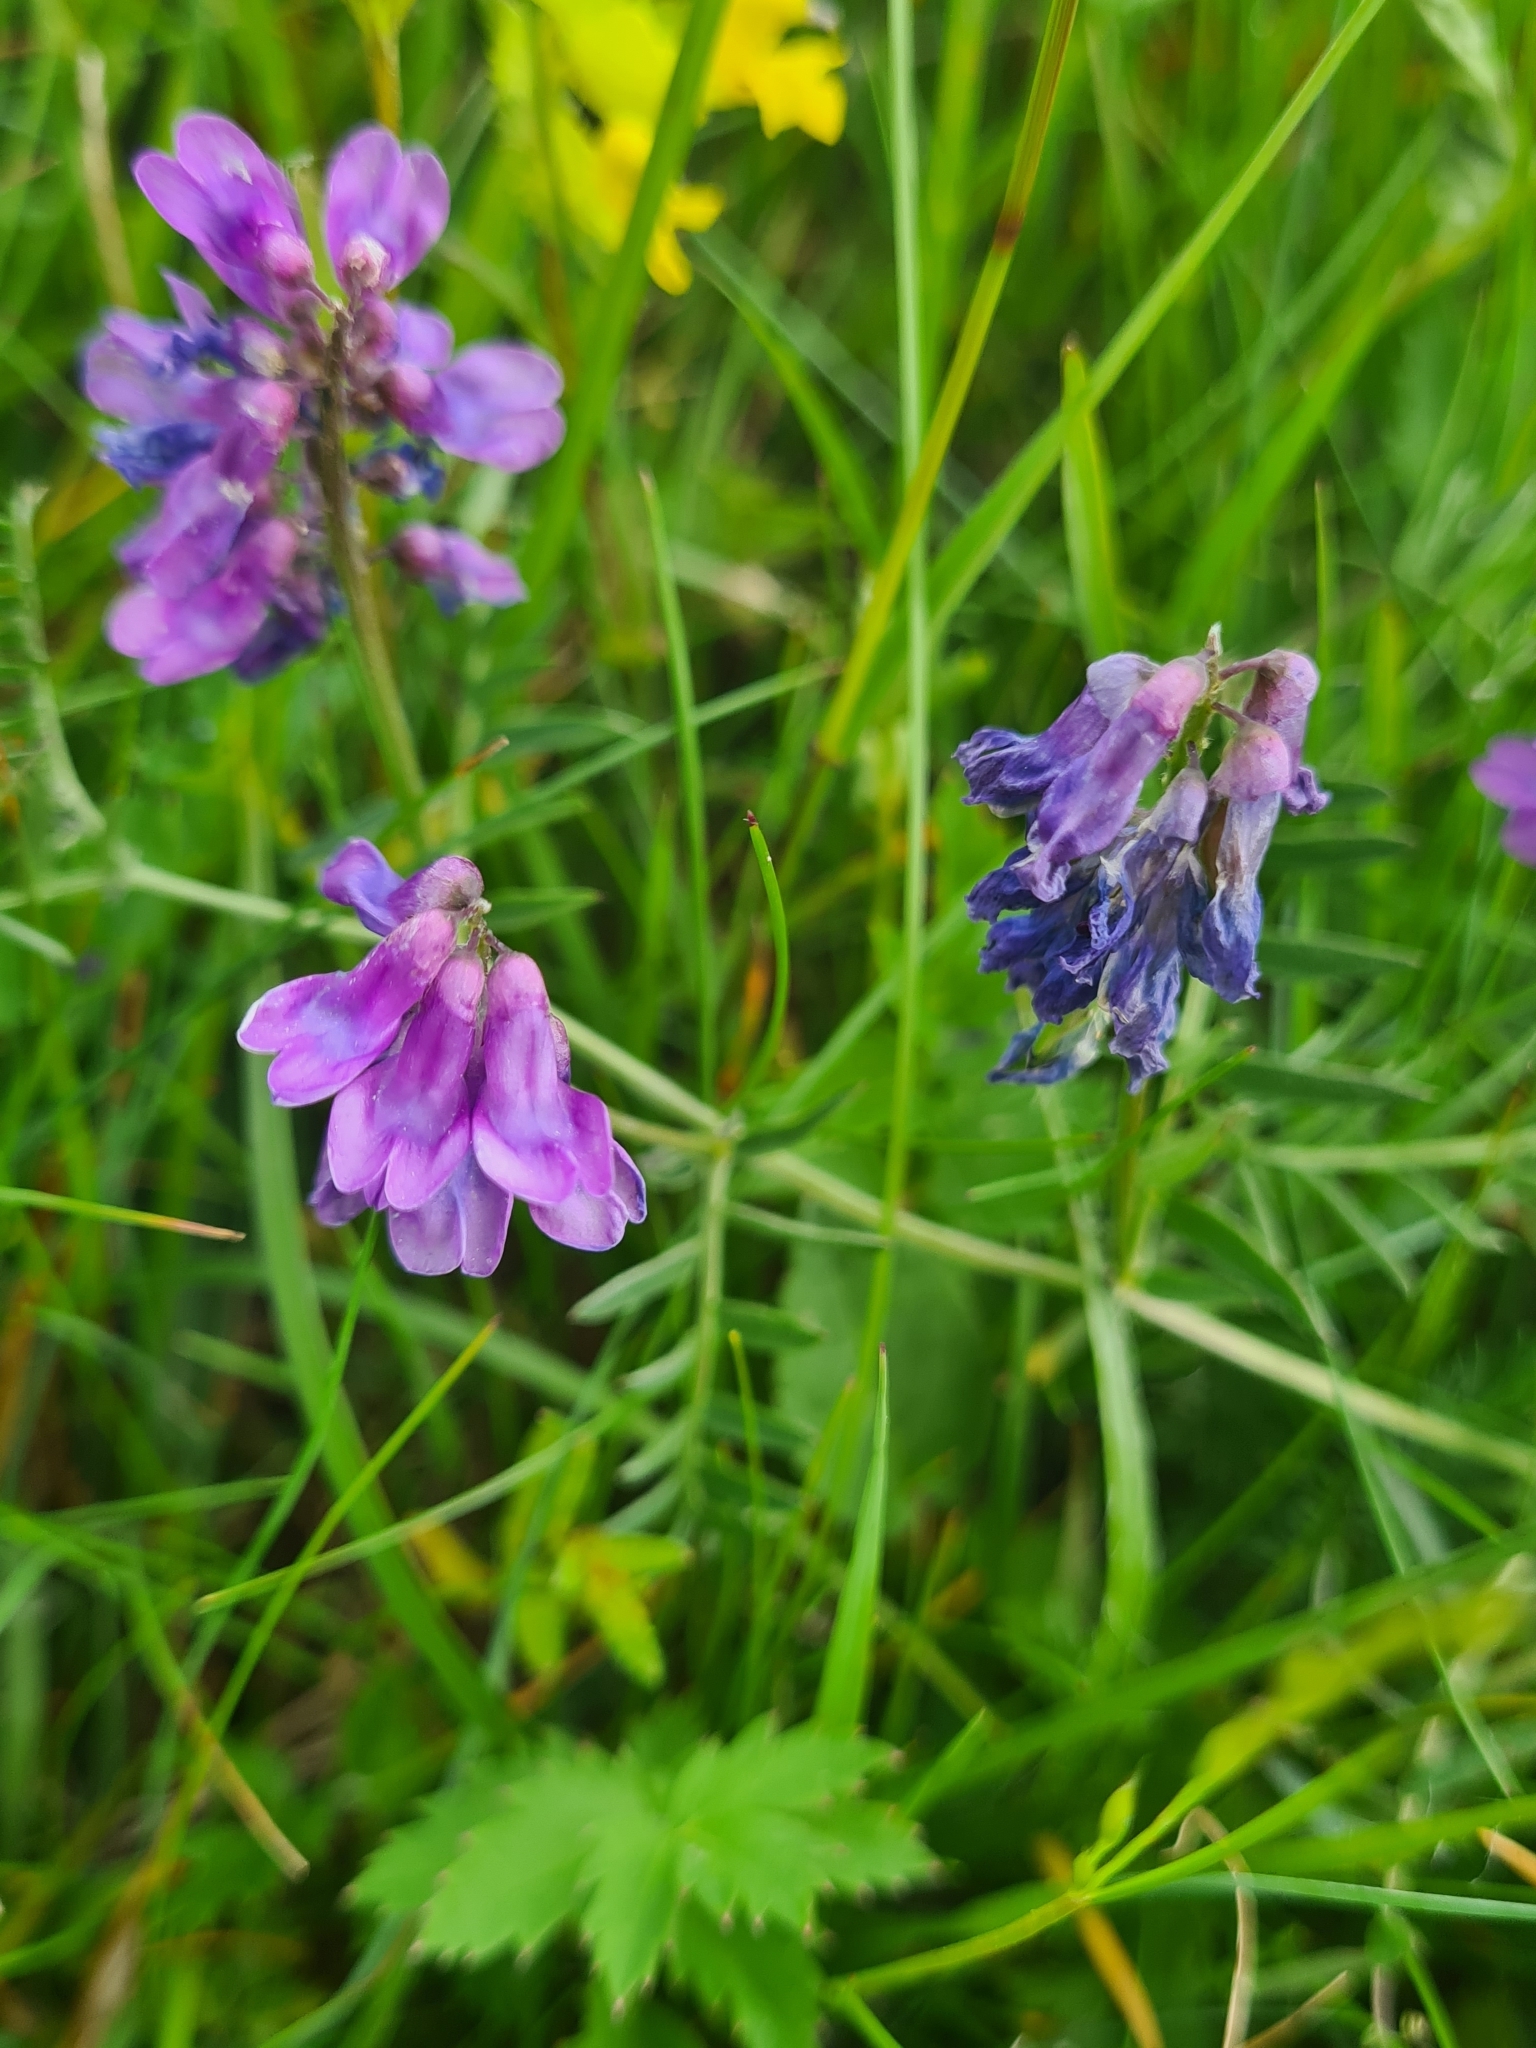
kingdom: Plantae
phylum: Tracheophyta
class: Magnoliopsida
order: Fabales
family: Fabaceae
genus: Vicia
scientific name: Vicia cracca
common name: Bird vetch
